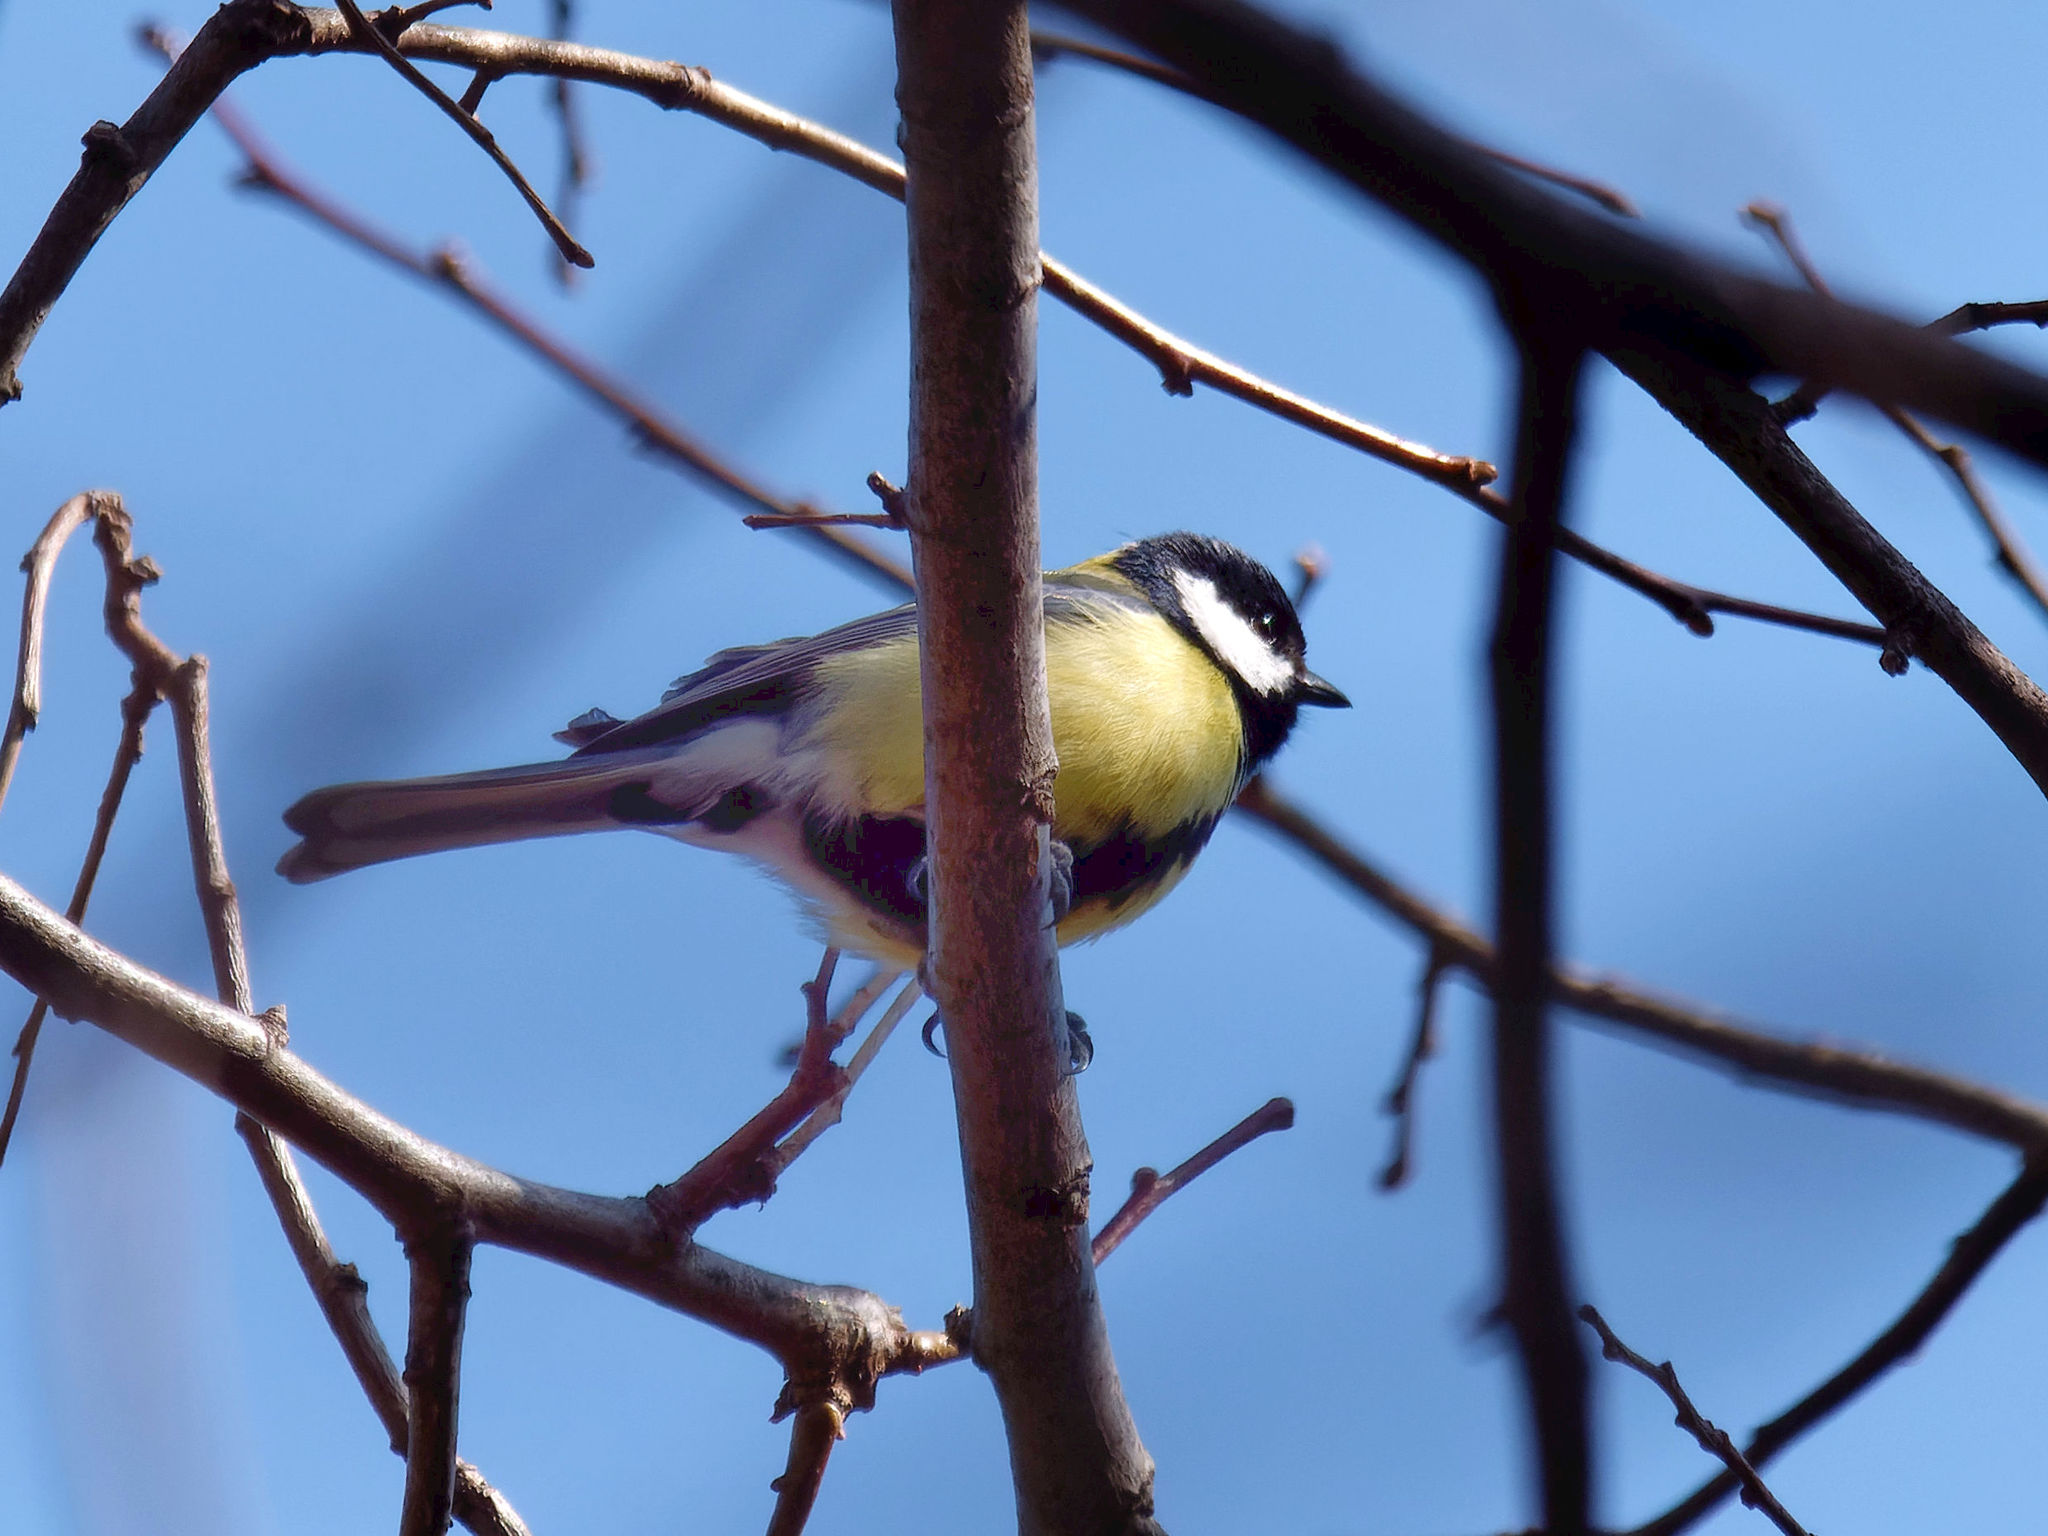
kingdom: Animalia
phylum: Chordata
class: Aves
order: Passeriformes
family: Paridae
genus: Parus
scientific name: Parus major
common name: Great tit
